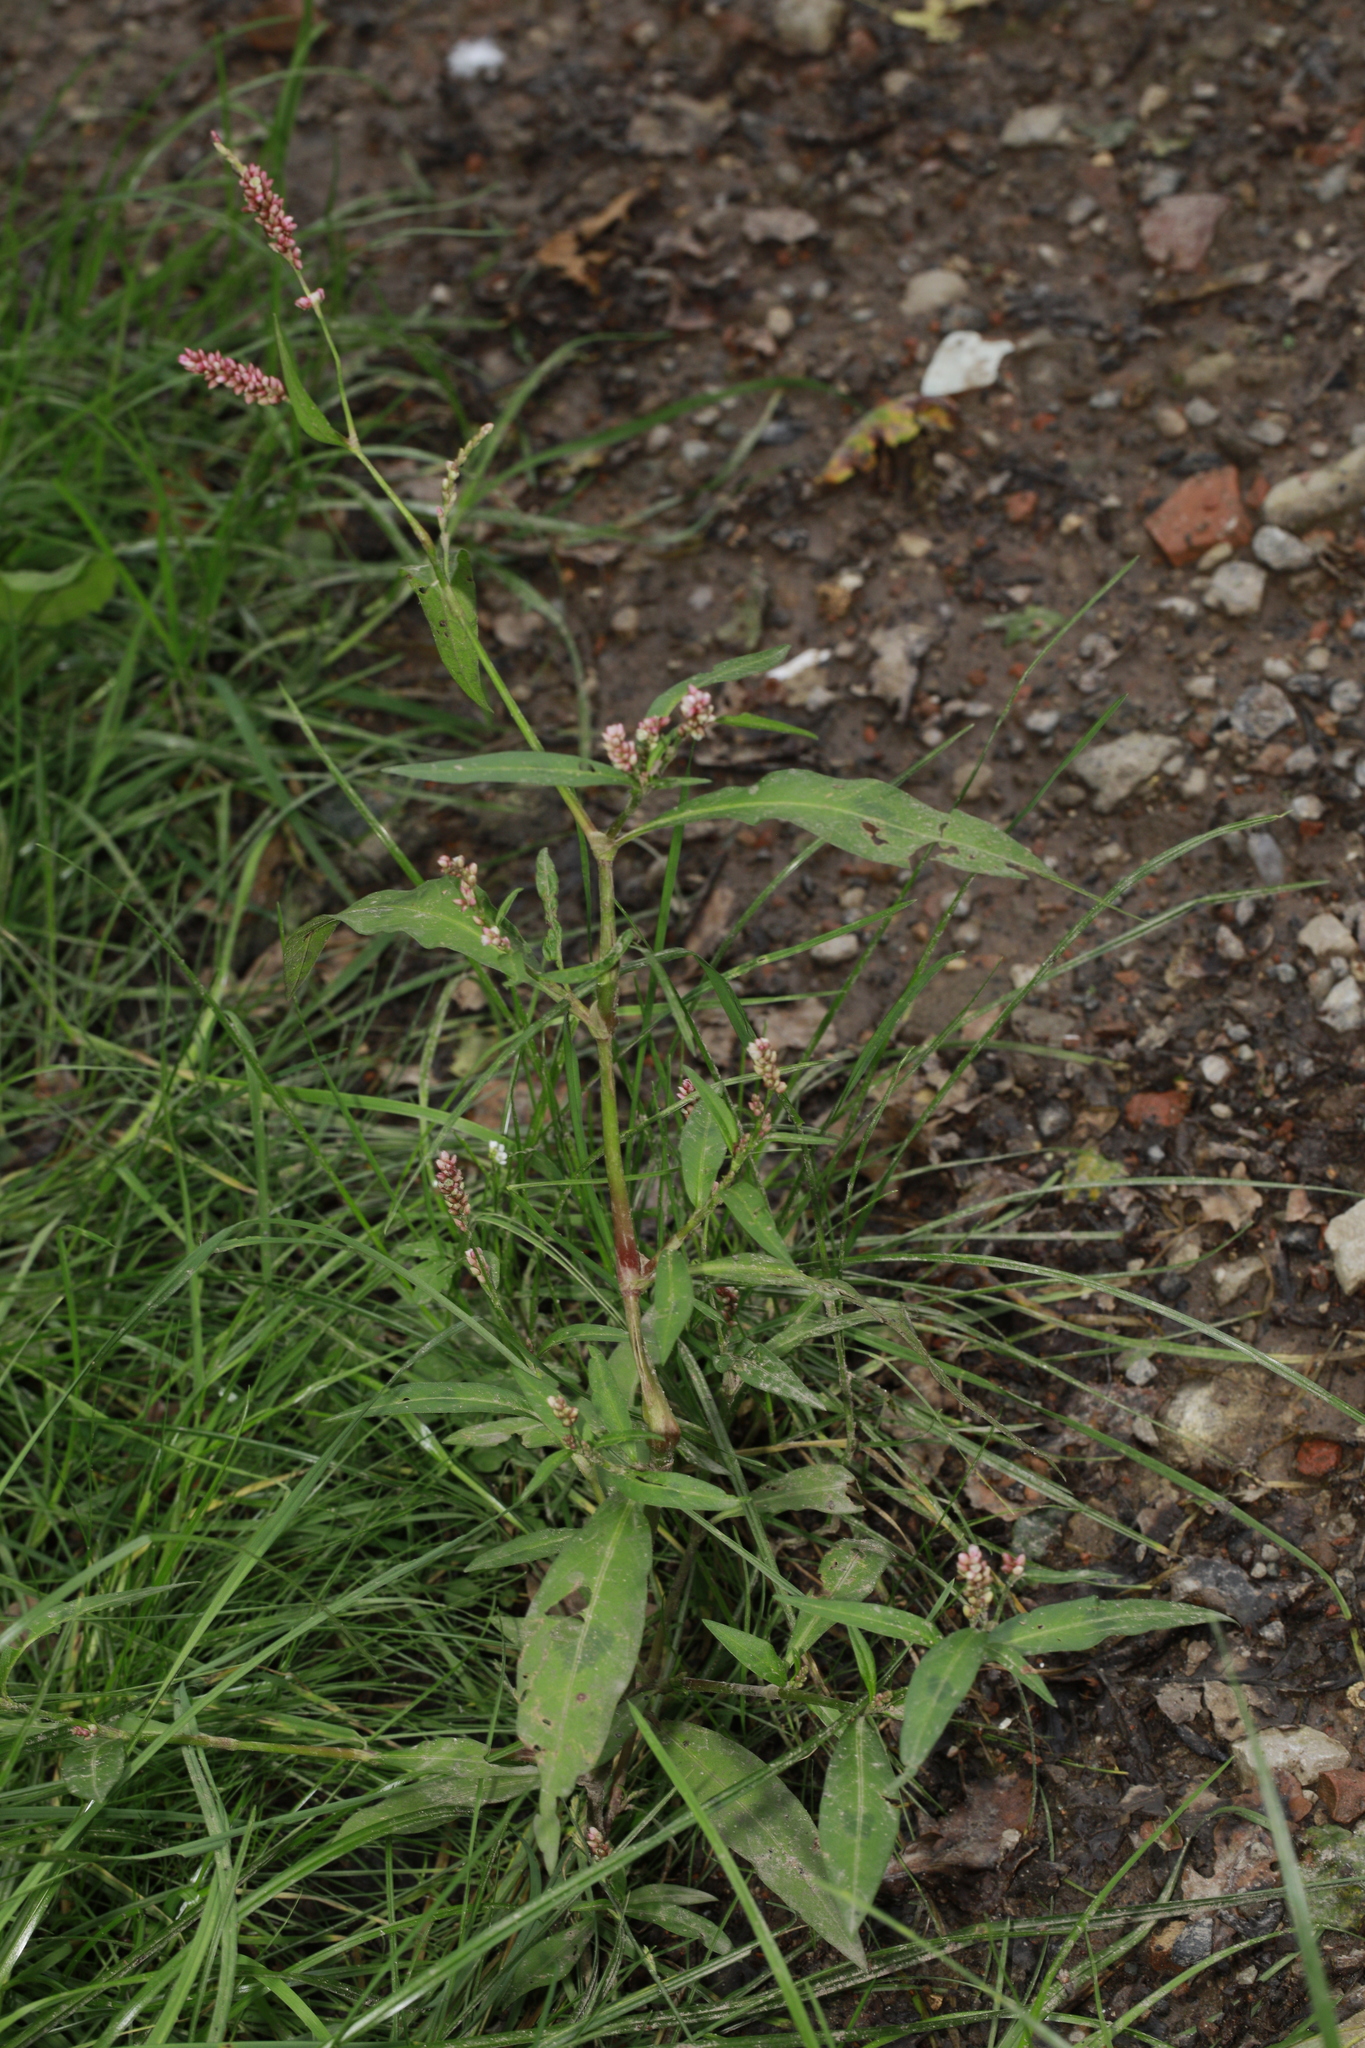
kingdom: Plantae
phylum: Tracheophyta
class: Magnoliopsida
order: Caryophyllales
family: Polygonaceae
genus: Persicaria
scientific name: Persicaria maculosa
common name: Redshank
